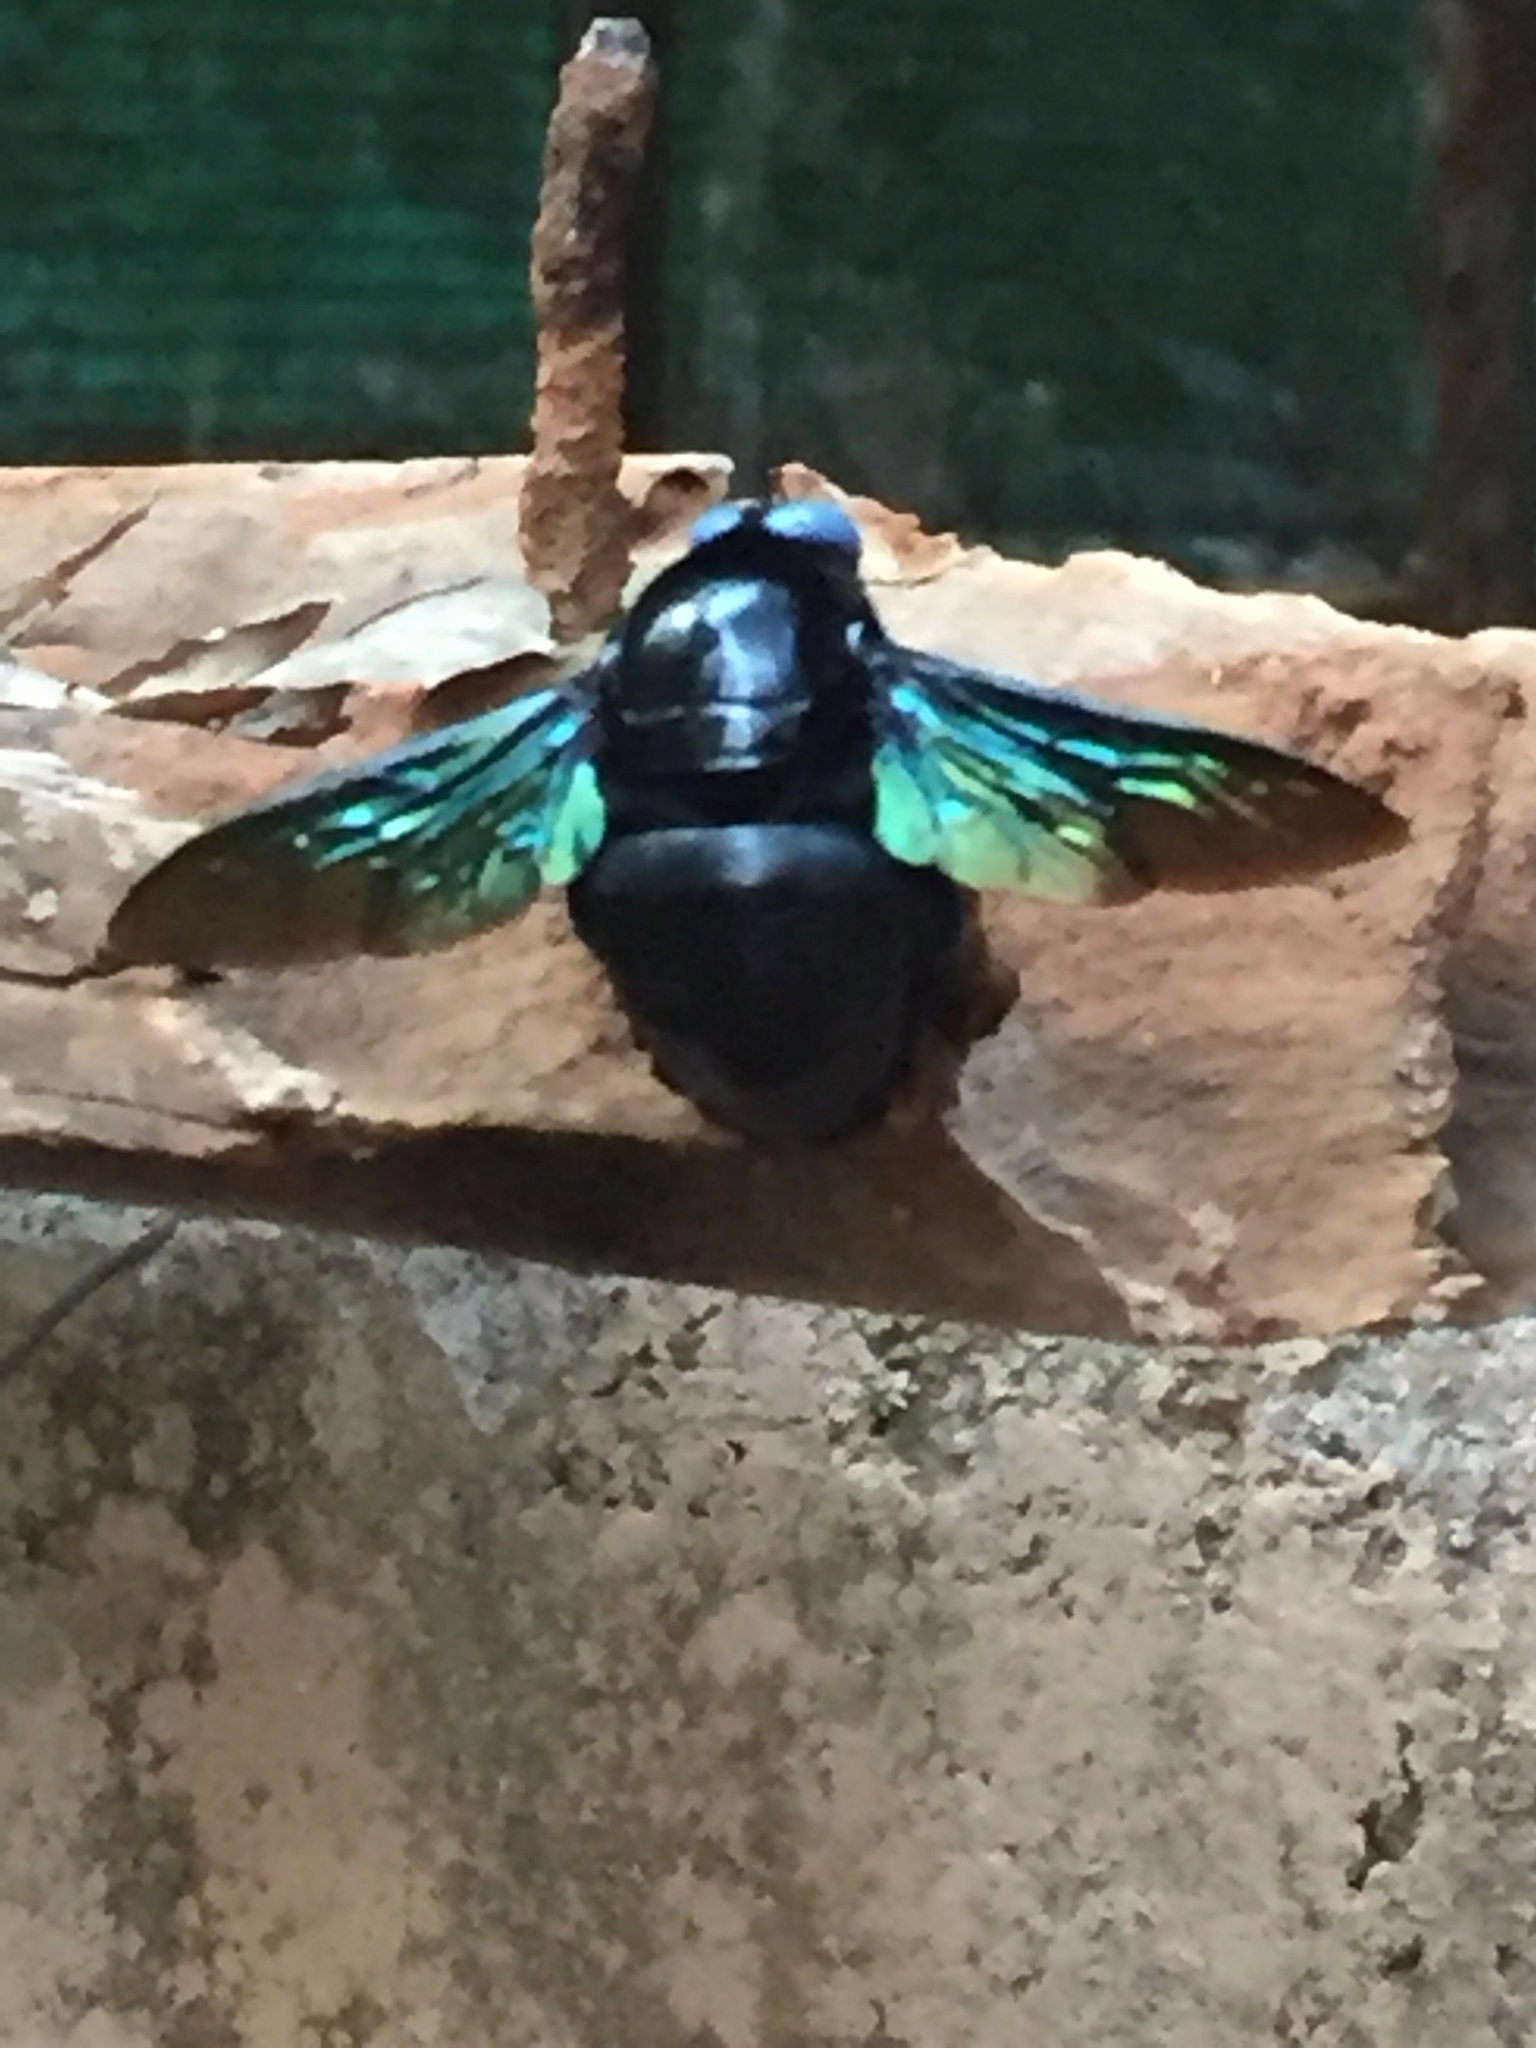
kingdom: Animalia
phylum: Arthropoda
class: Insecta
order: Hymenoptera
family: Apidae
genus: Xylocopa
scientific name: Xylocopa tenuiscapa
